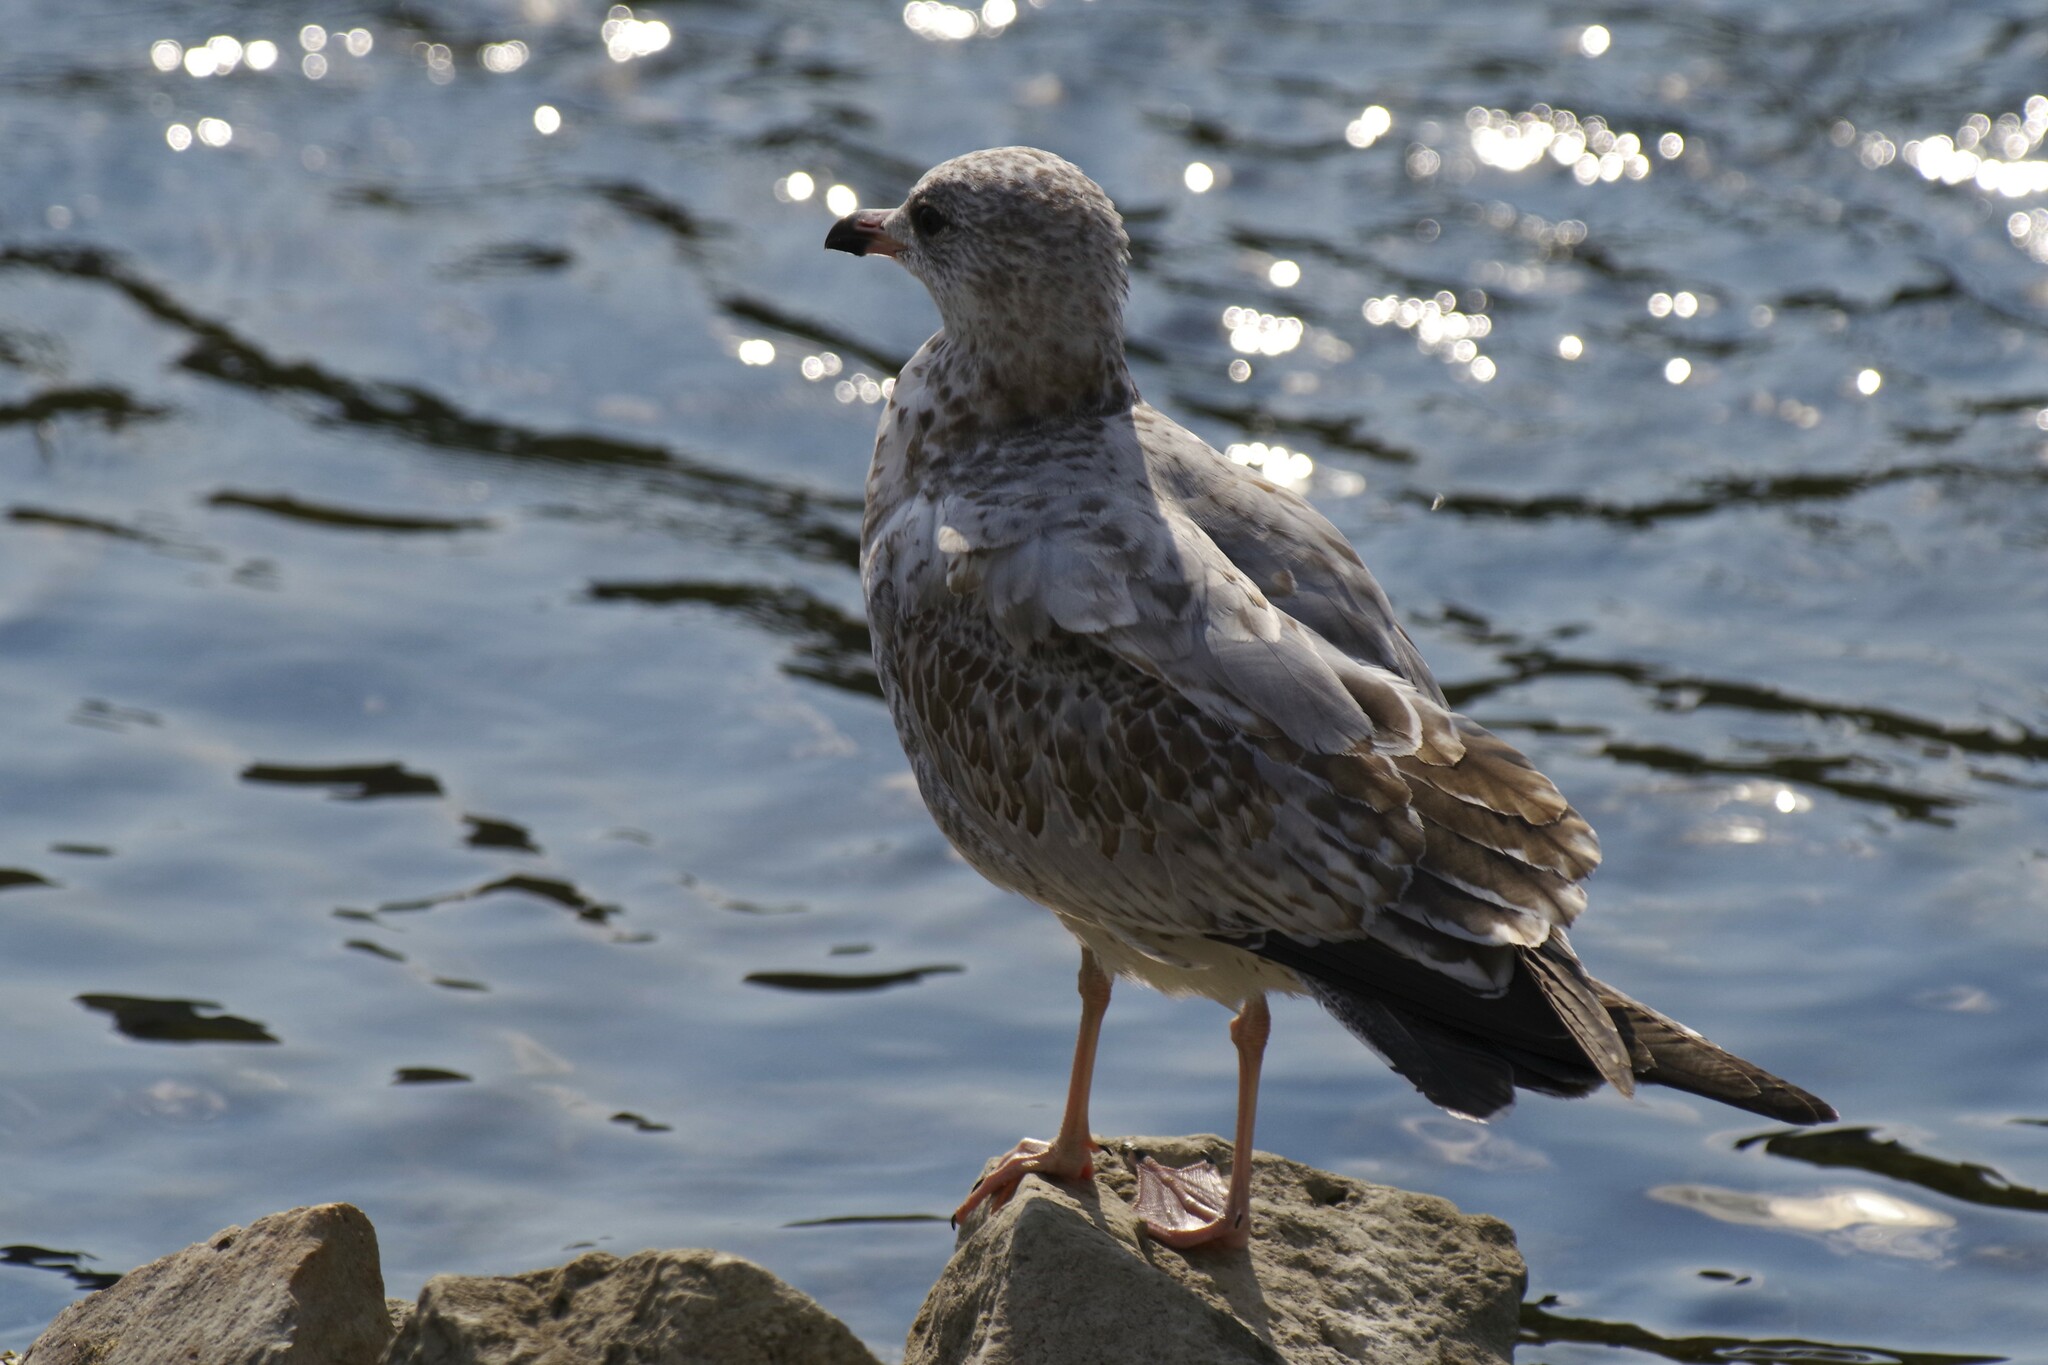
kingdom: Animalia
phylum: Chordata
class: Aves
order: Charadriiformes
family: Laridae
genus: Larus
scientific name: Larus delawarensis
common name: Ring-billed gull
